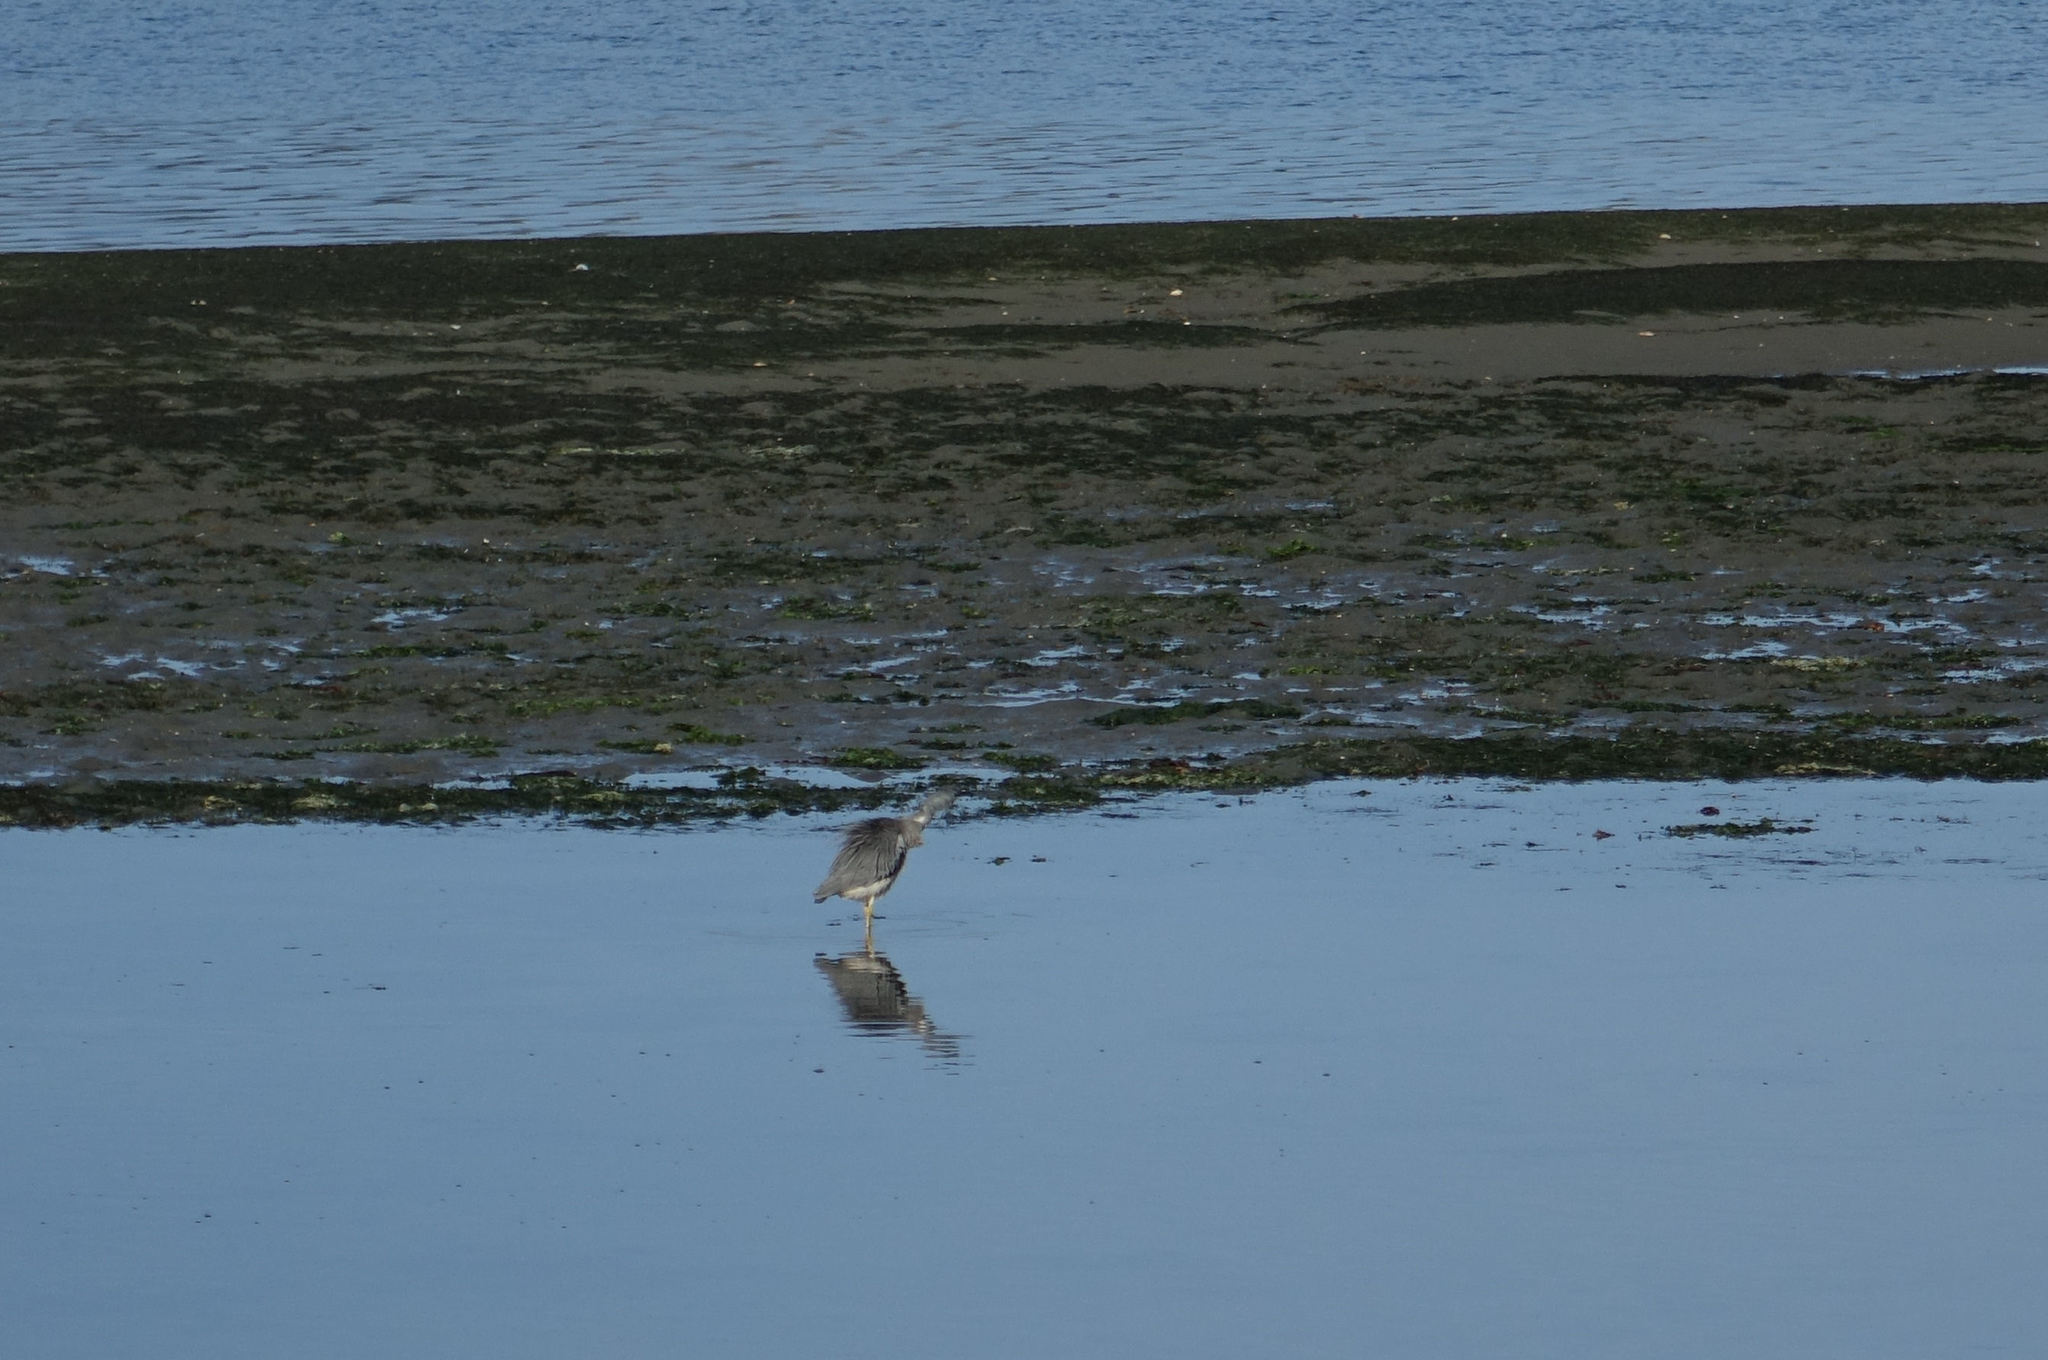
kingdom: Animalia
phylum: Chordata
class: Aves
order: Pelecaniformes
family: Ardeidae
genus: Egretta
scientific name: Egretta novaehollandiae
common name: White-faced heron
